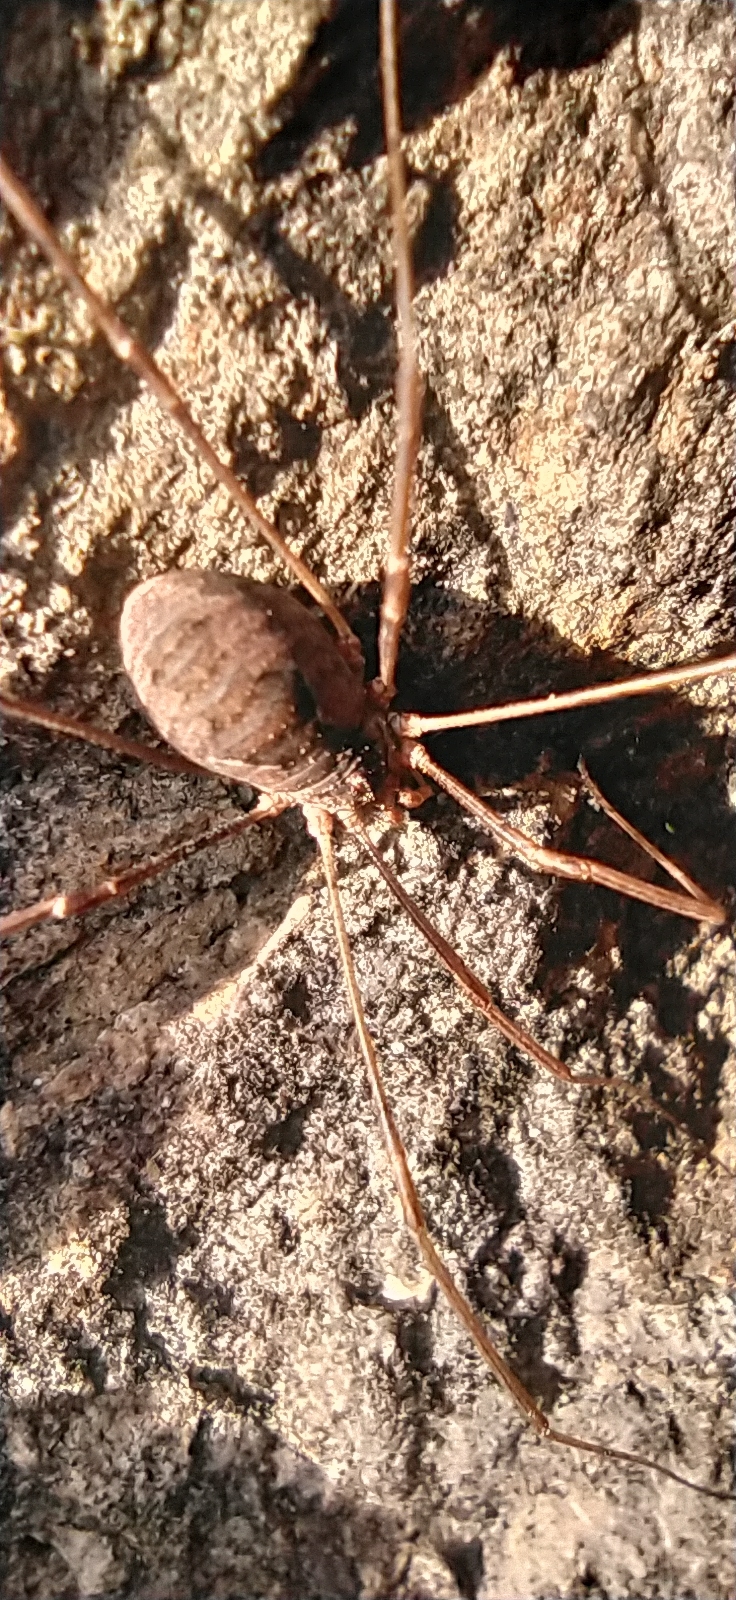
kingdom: Animalia
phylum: Arthropoda
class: Arachnida
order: Opiliones
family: Phalangiidae
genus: Phalangium
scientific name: Phalangium opilio
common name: Daddy longleg
